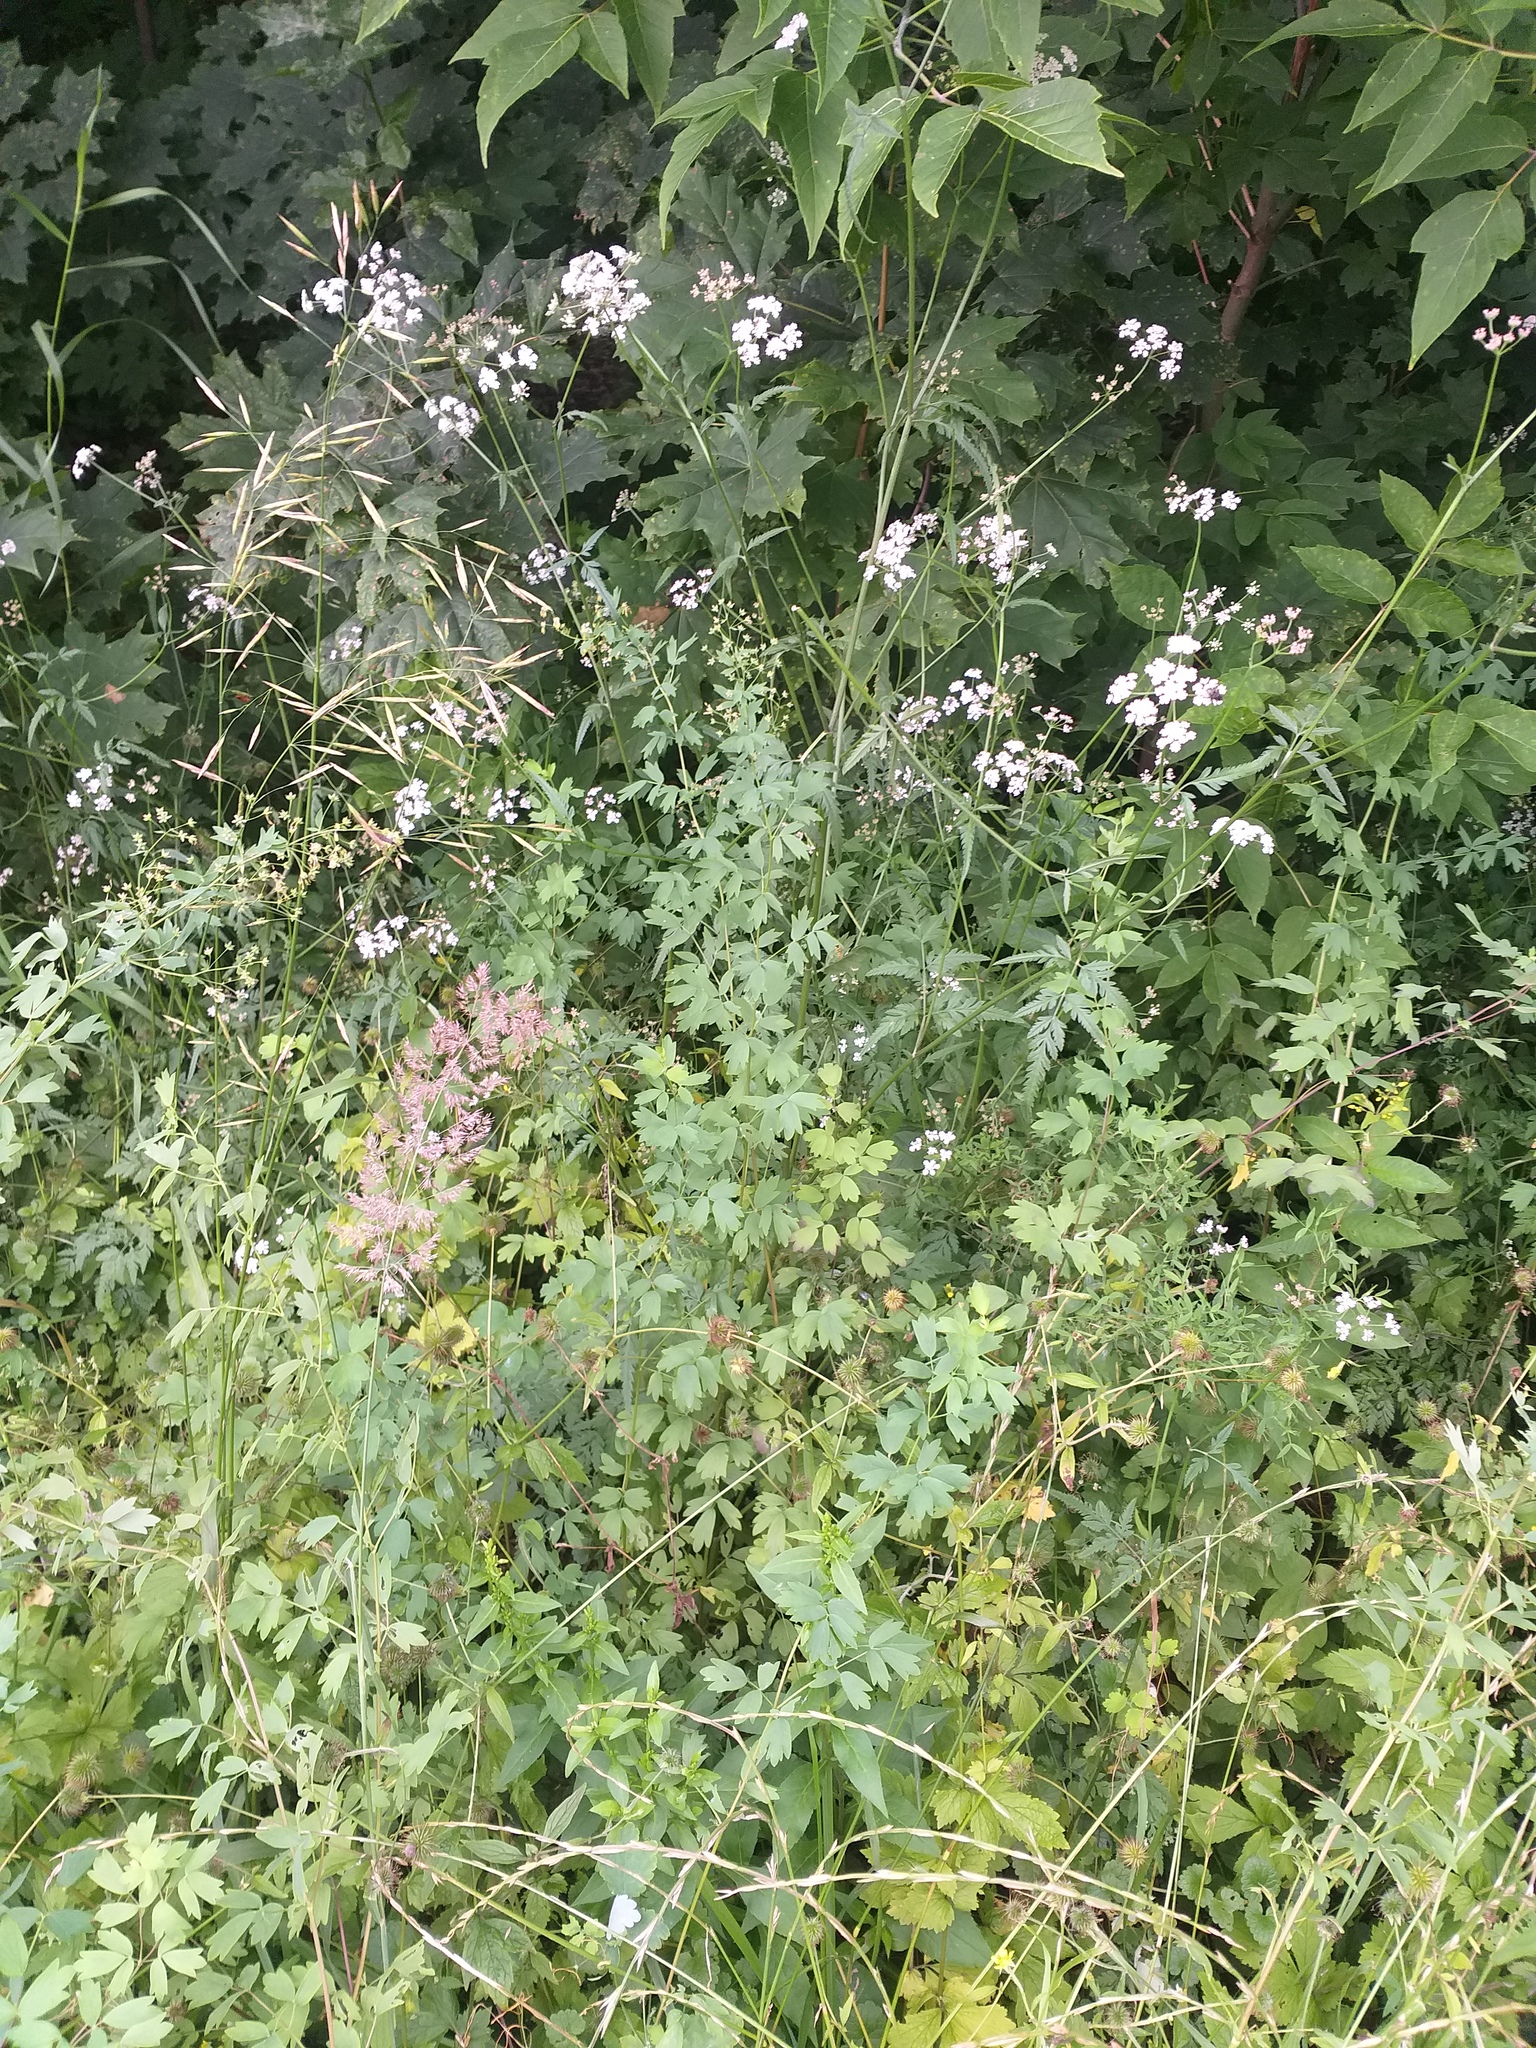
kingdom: Plantae
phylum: Tracheophyta
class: Magnoliopsida
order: Ranunculales
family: Ranunculaceae
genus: Thalictrum
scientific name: Thalictrum simplex
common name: Small meadow-rue
